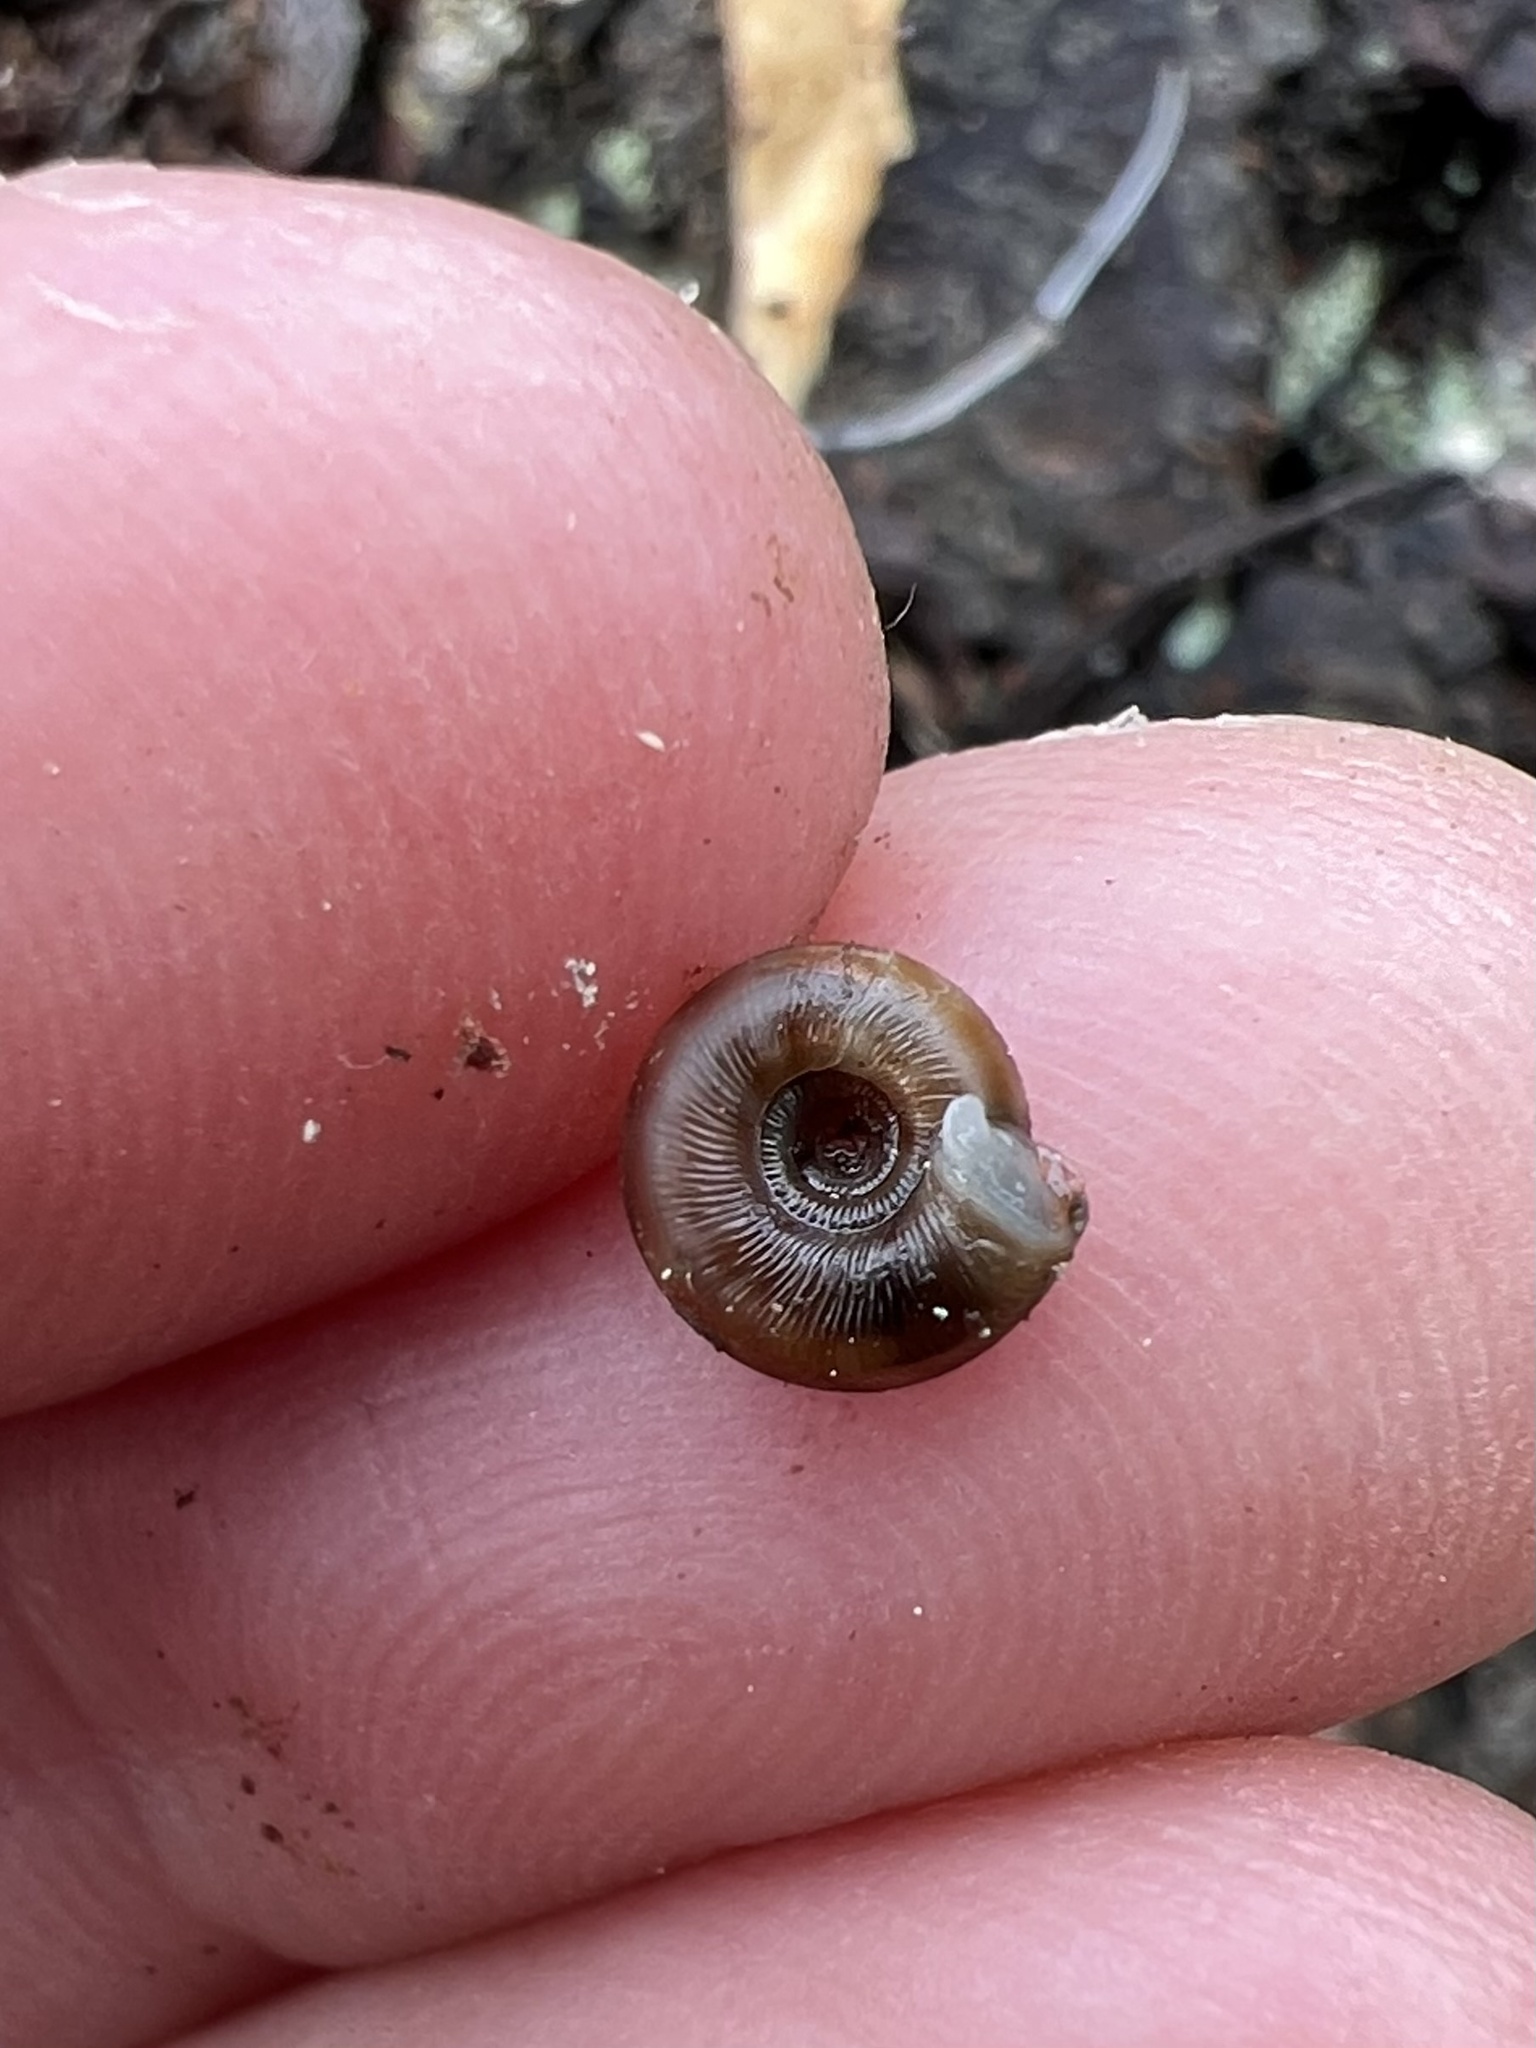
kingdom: Animalia
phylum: Mollusca
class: Gastropoda
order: Stylommatophora
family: Discidae
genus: Discus
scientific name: Discus rotundatus
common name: Rounded snail
